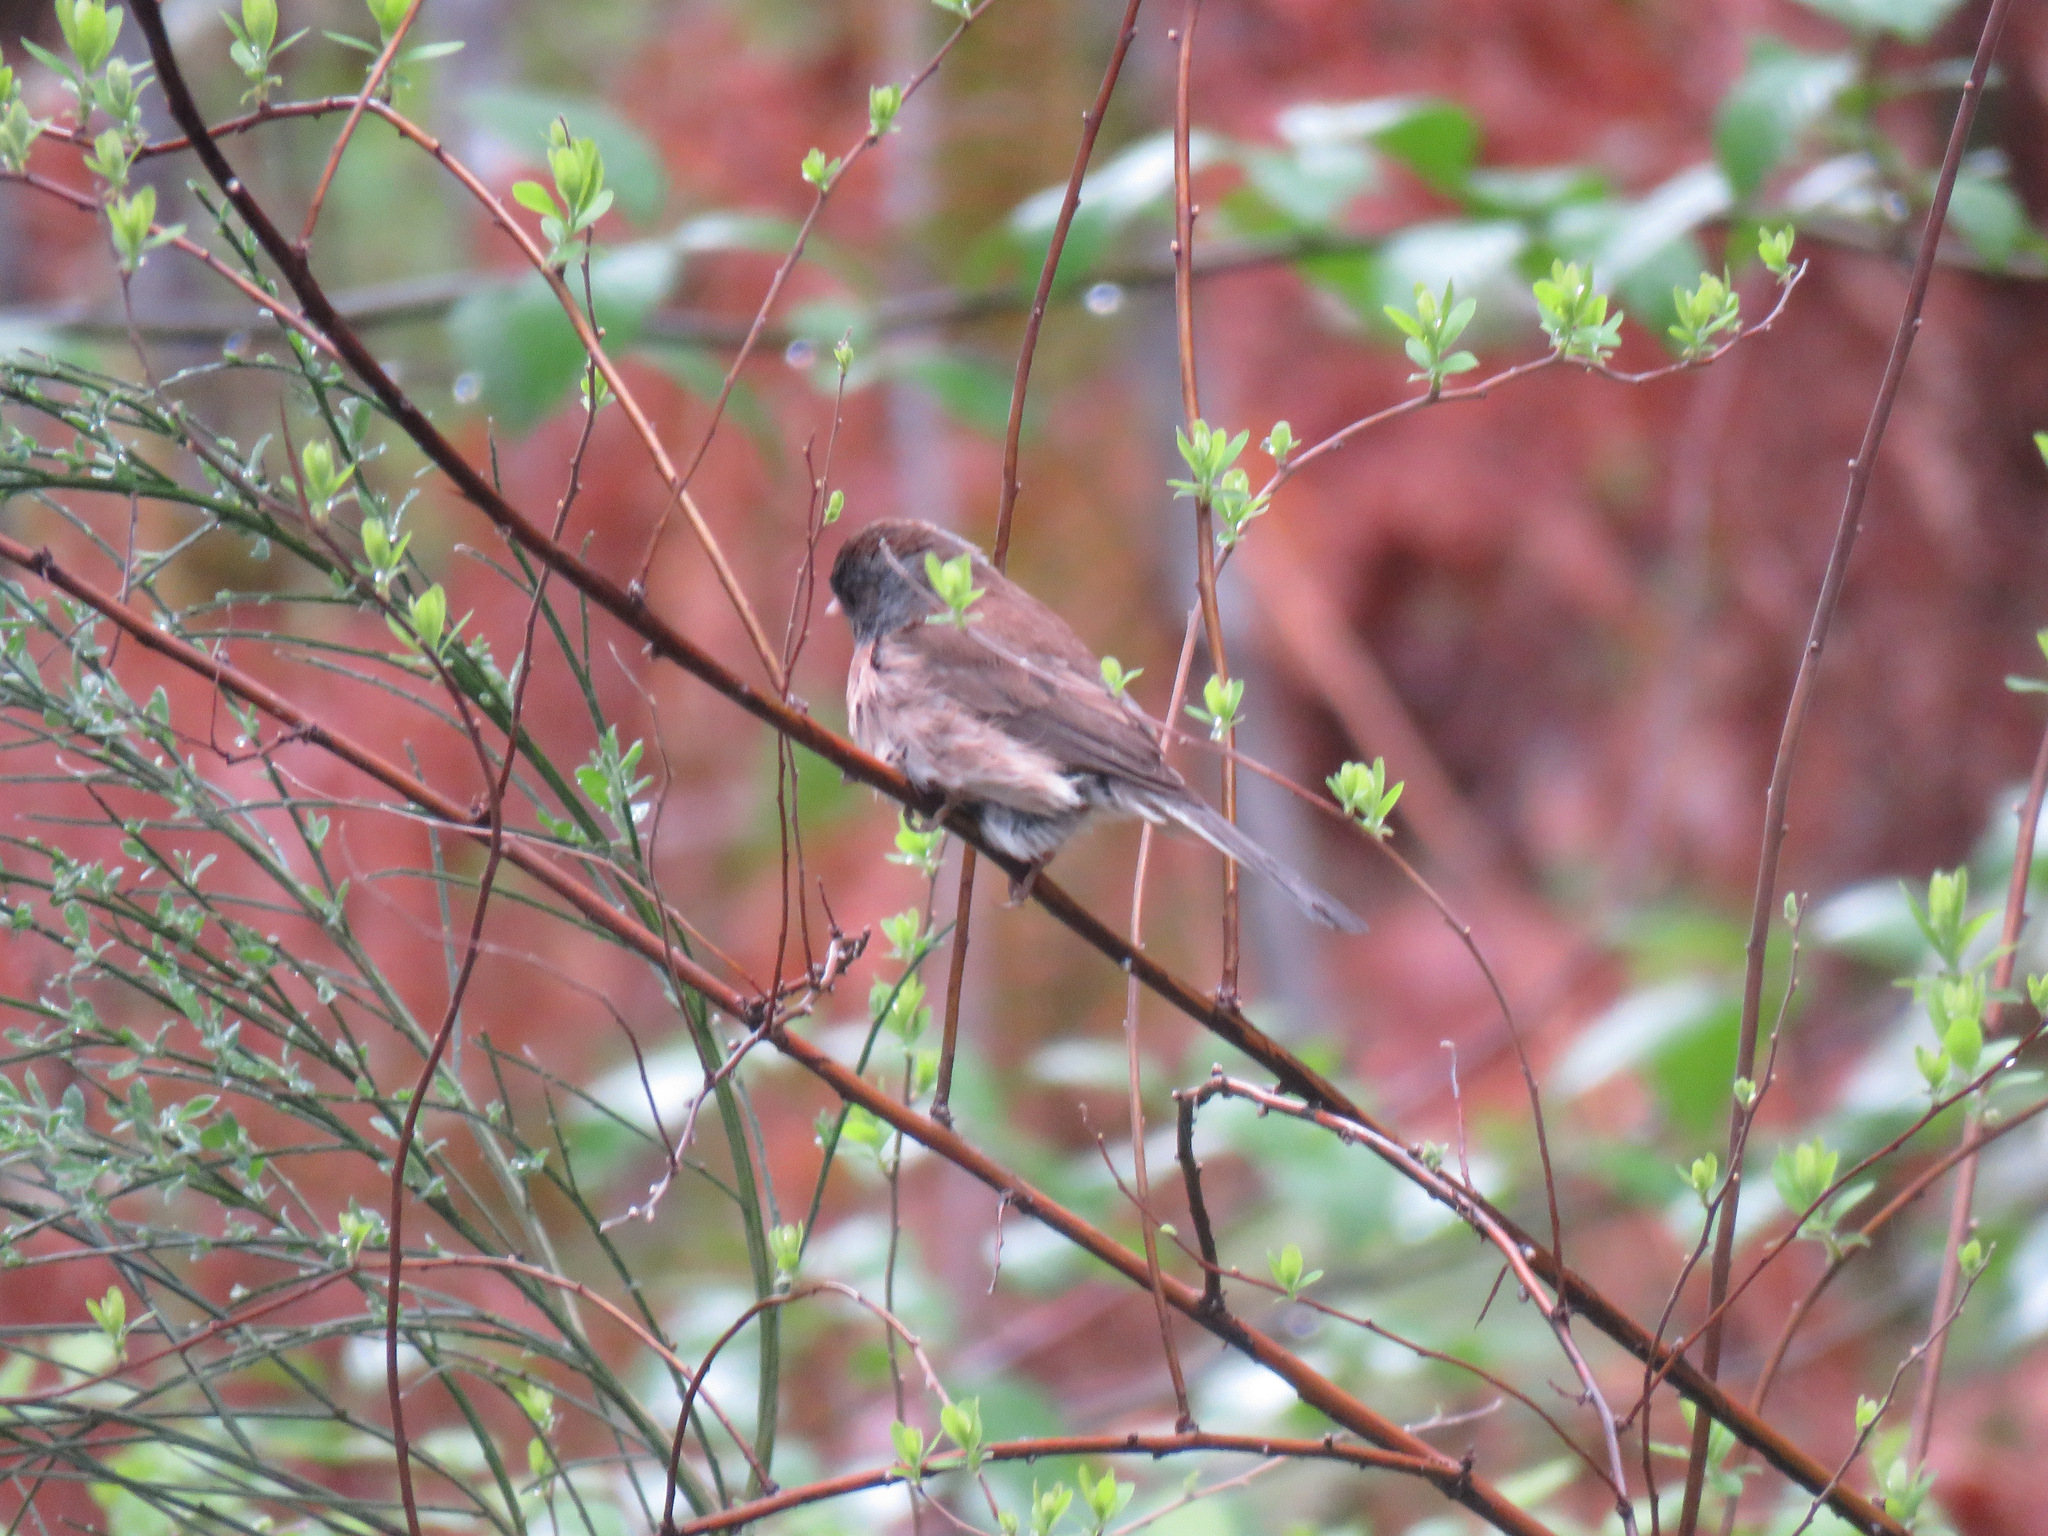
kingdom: Animalia
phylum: Chordata
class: Aves
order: Passeriformes
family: Passerellidae
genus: Junco
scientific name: Junco hyemalis
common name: Dark-eyed junco
